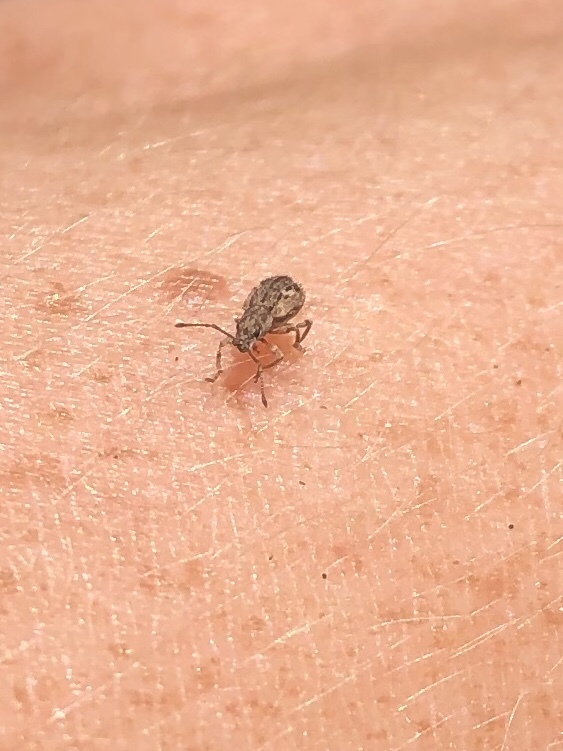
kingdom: Animalia
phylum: Arthropoda
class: Insecta
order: Coleoptera
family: Curculionidae
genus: Pseudoedophrys
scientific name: Pseudoedophrys hilleri
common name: Weevil
